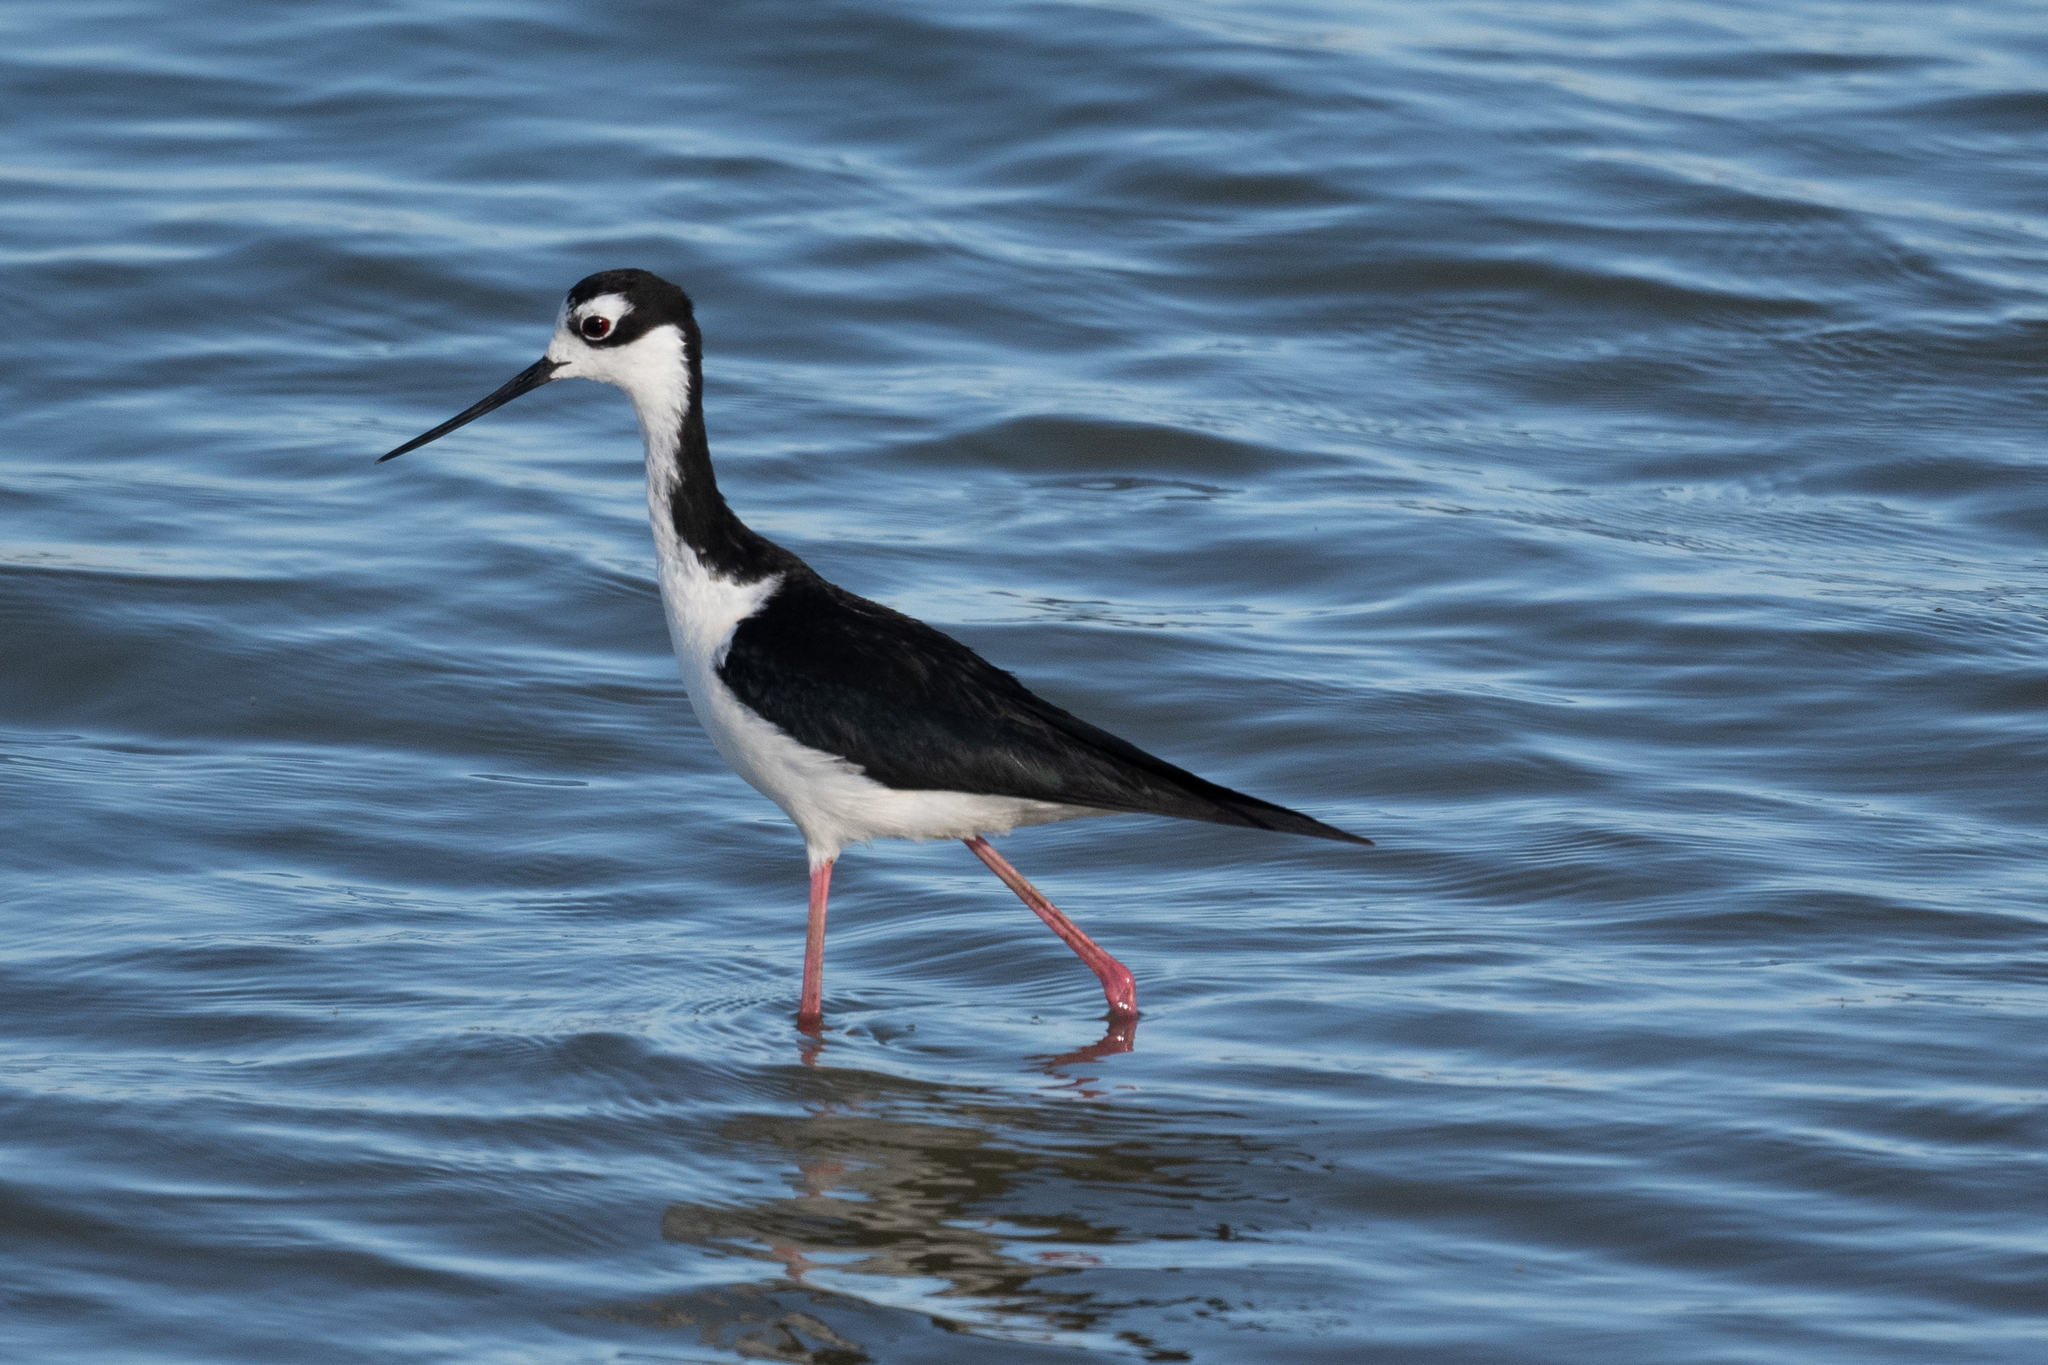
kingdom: Animalia
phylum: Chordata
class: Aves
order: Charadriiformes
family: Recurvirostridae
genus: Himantopus
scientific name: Himantopus mexicanus
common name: Black-necked stilt
